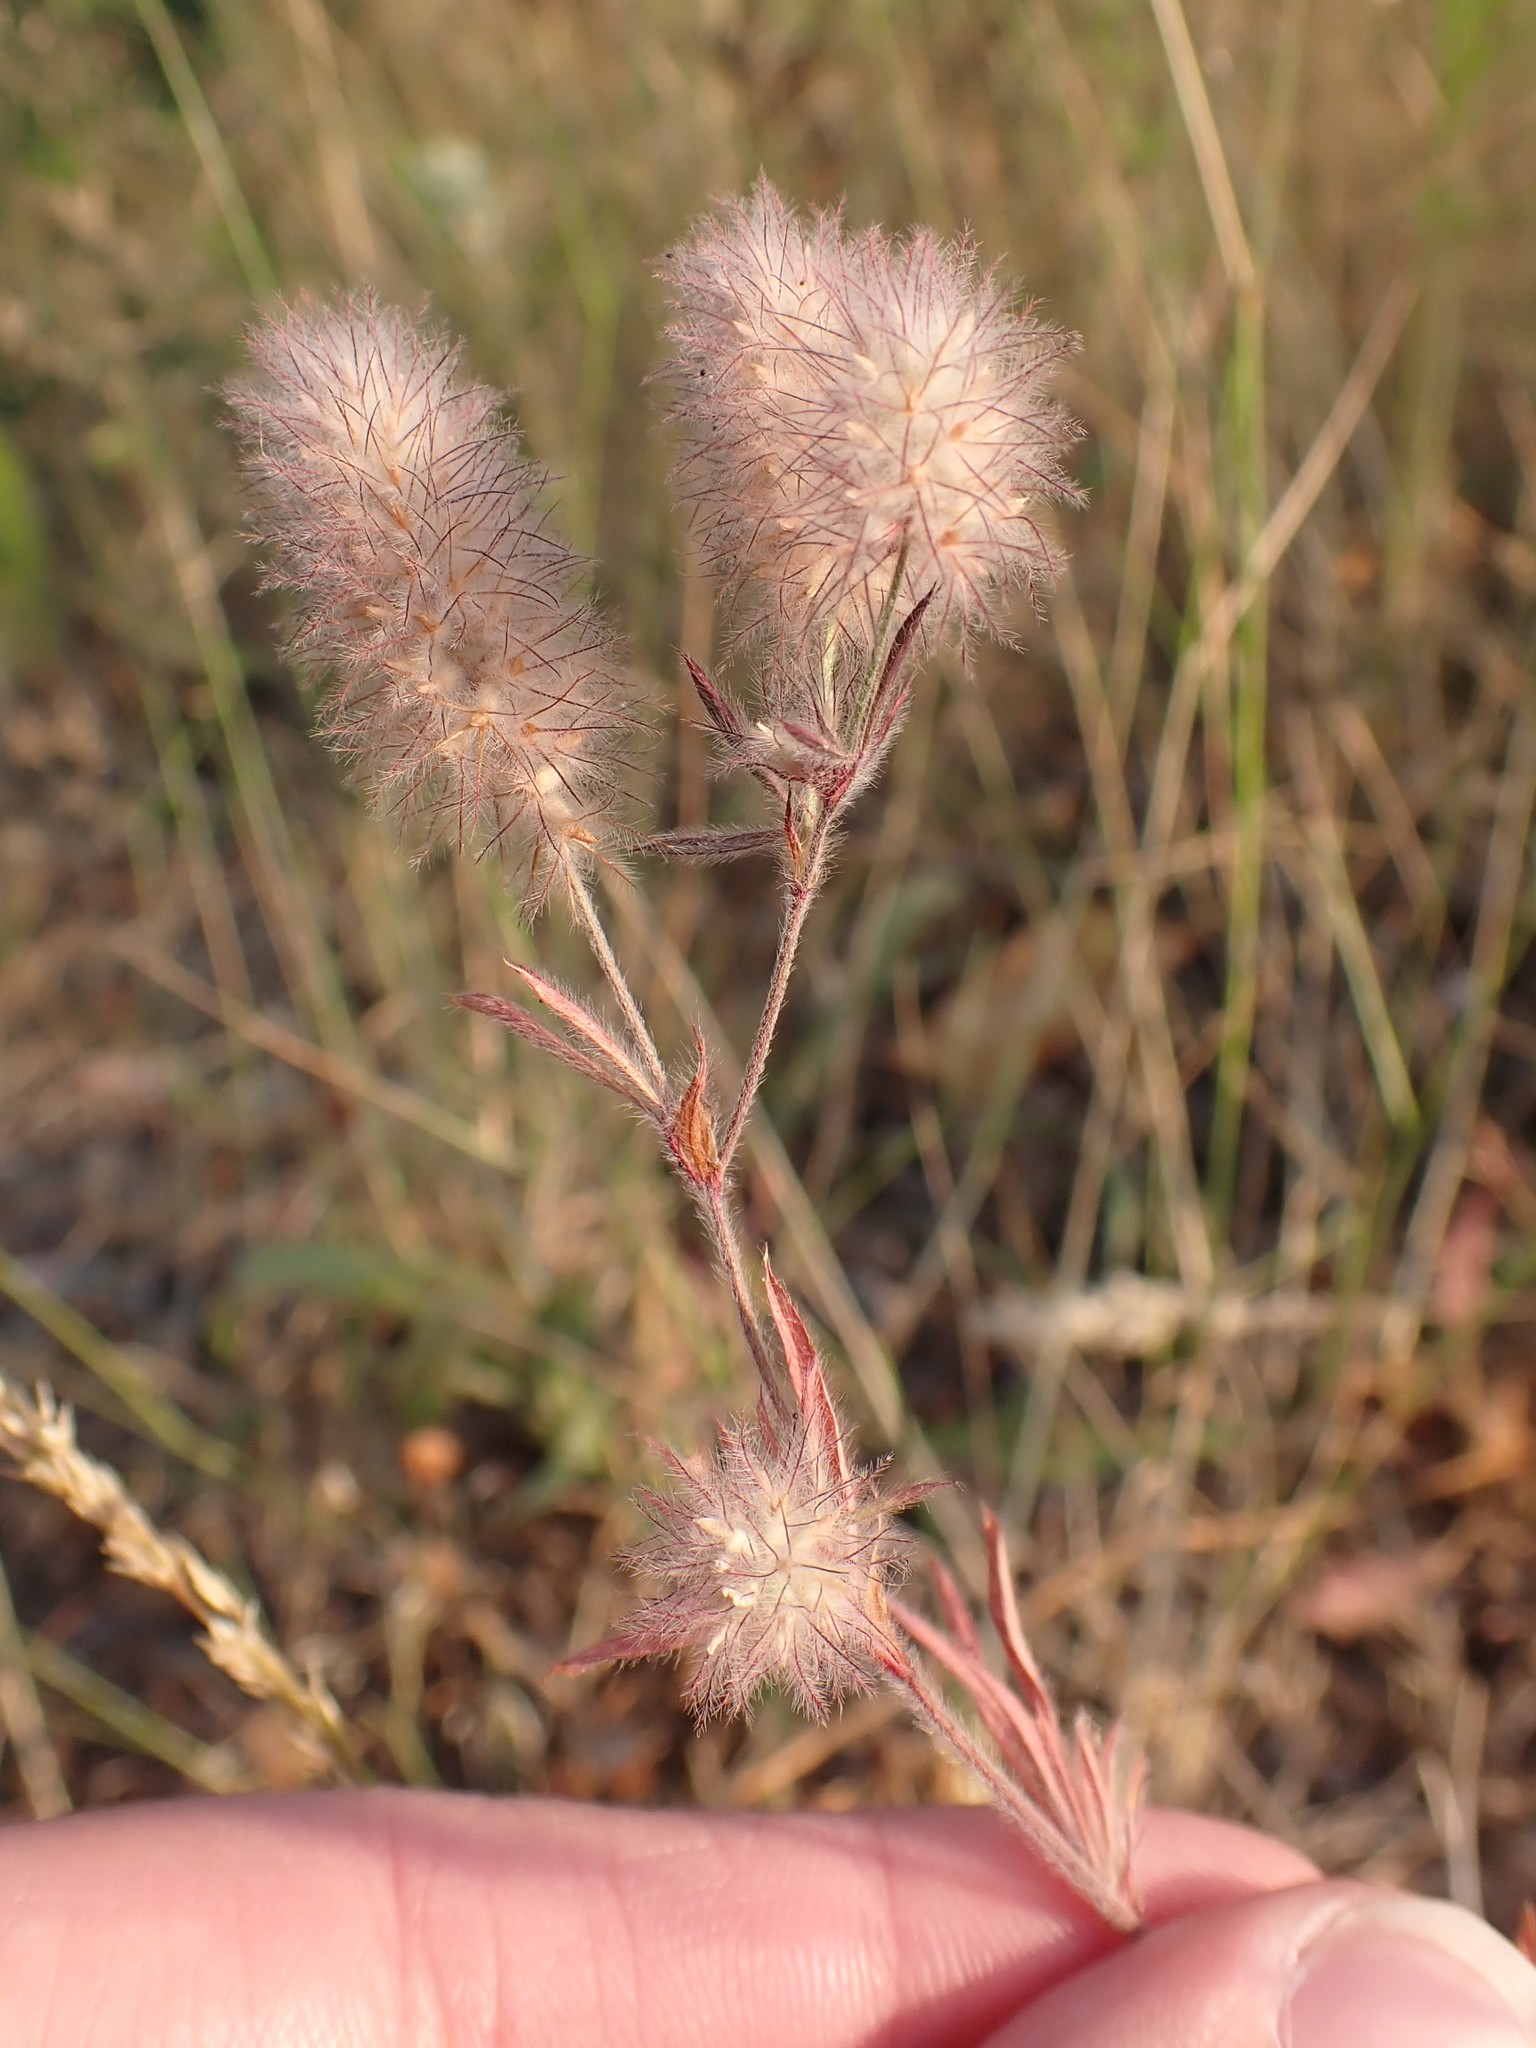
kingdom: Plantae
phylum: Tracheophyta
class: Magnoliopsida
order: Fabales
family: Fabaceae
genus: Trifolium
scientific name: Trifolium arvense
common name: Hare's-foot clover
